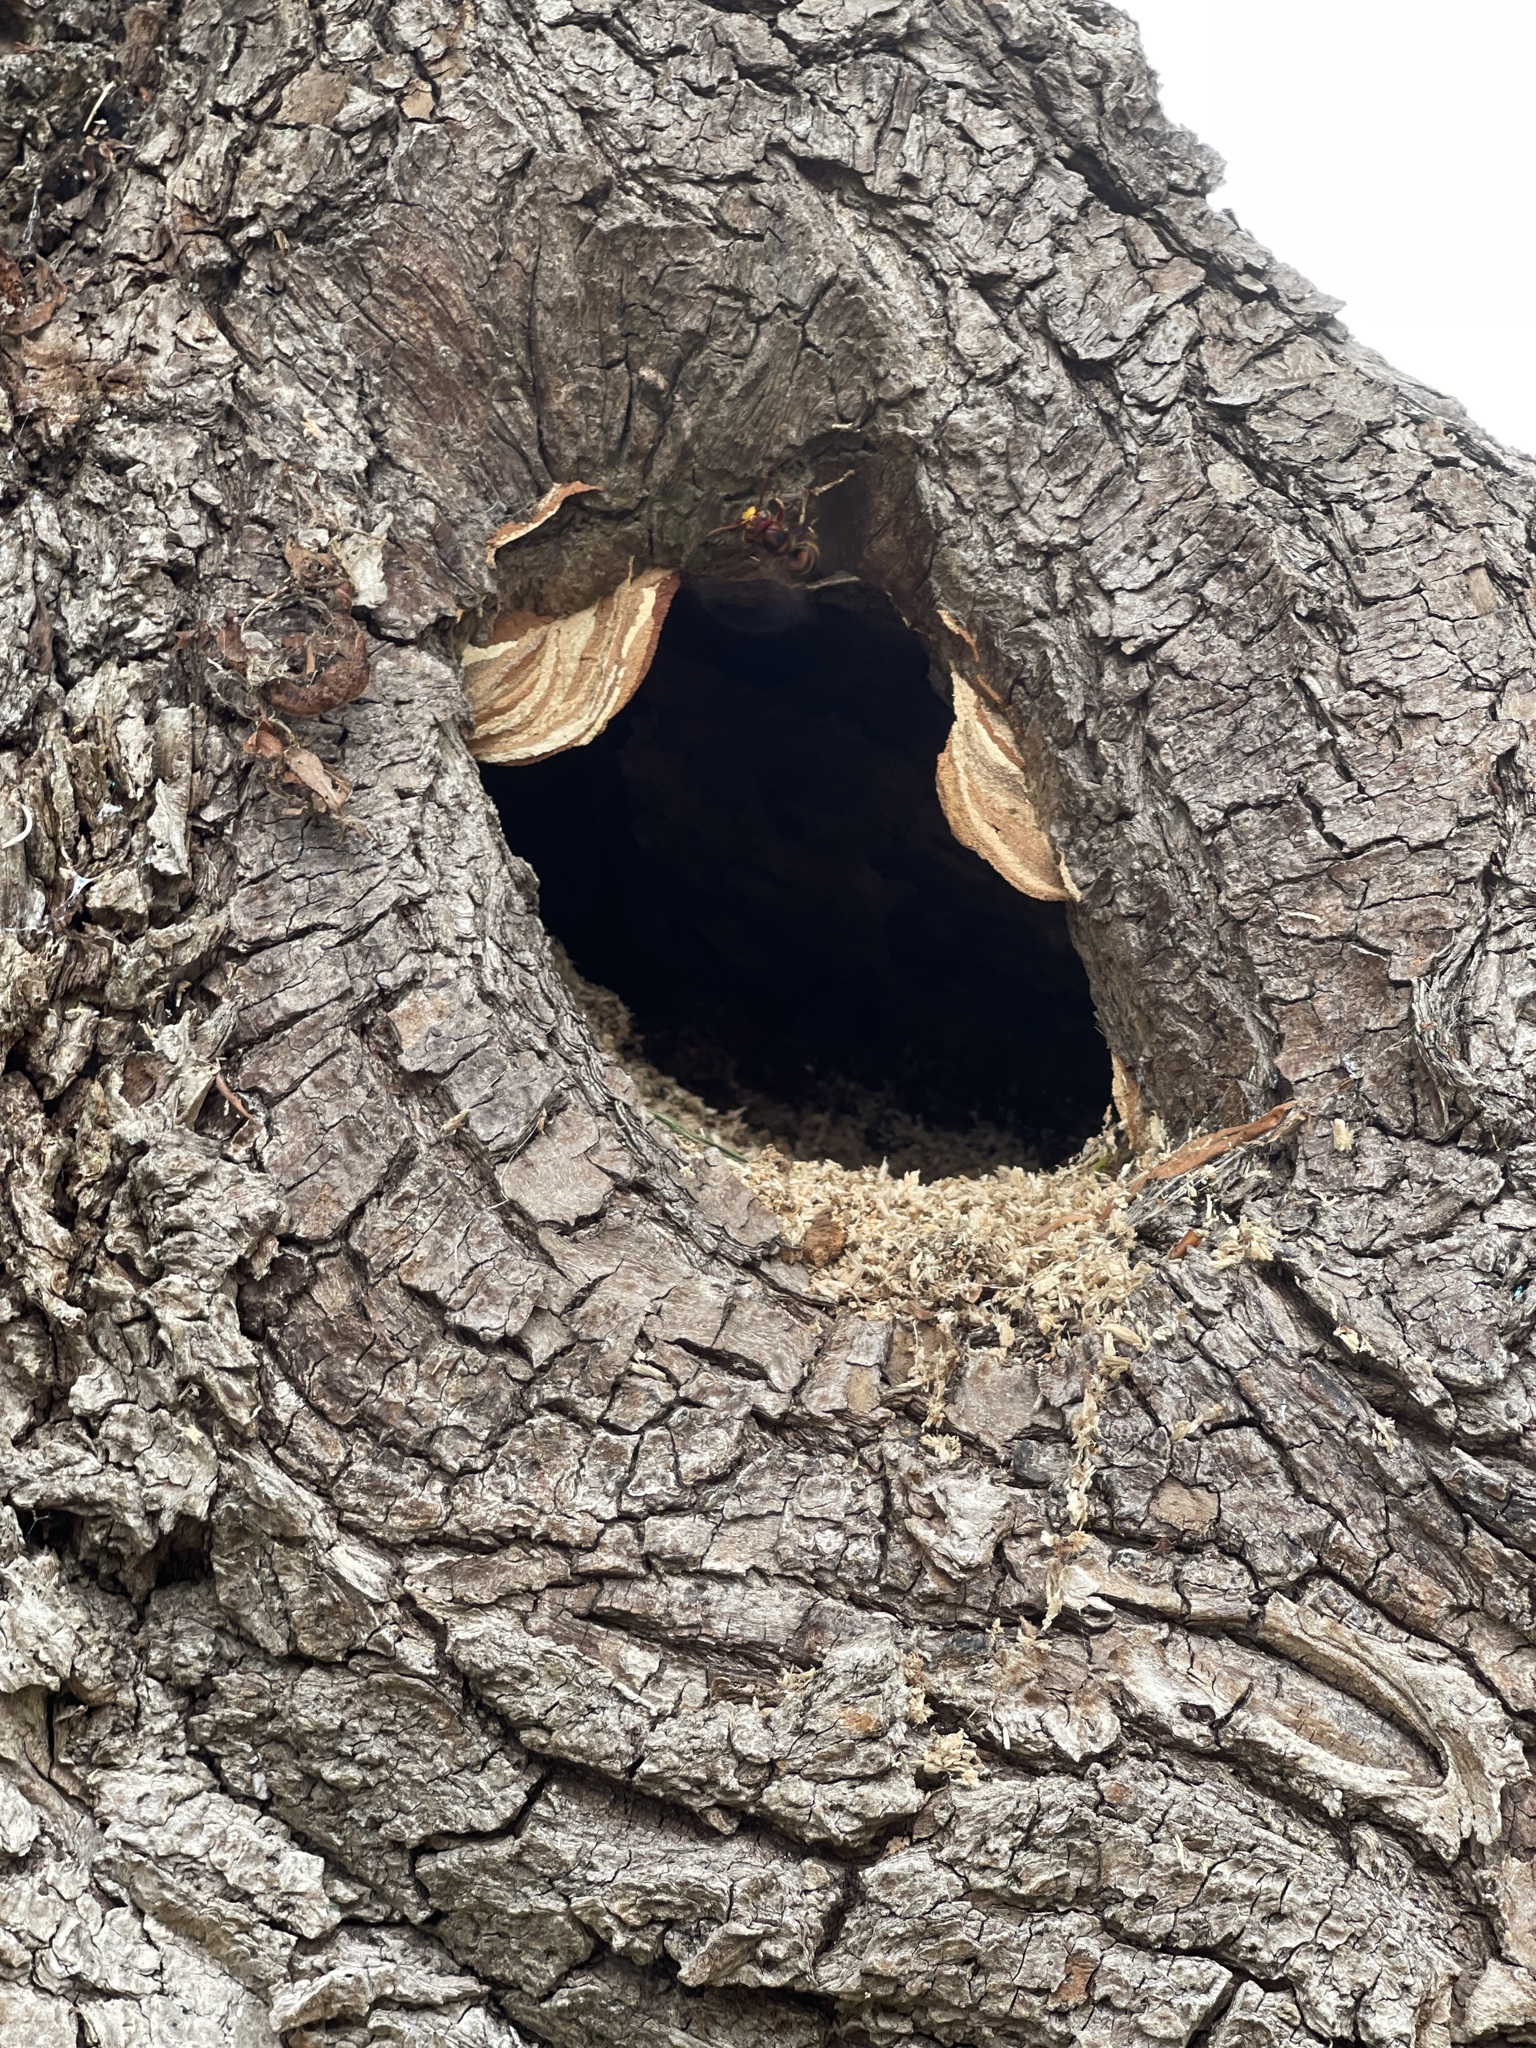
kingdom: Animalia
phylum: Arthropoda
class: Insecta
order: Hymenoptera
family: Vespidae
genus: Vespa
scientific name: Vespa crabro
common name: Hornet
